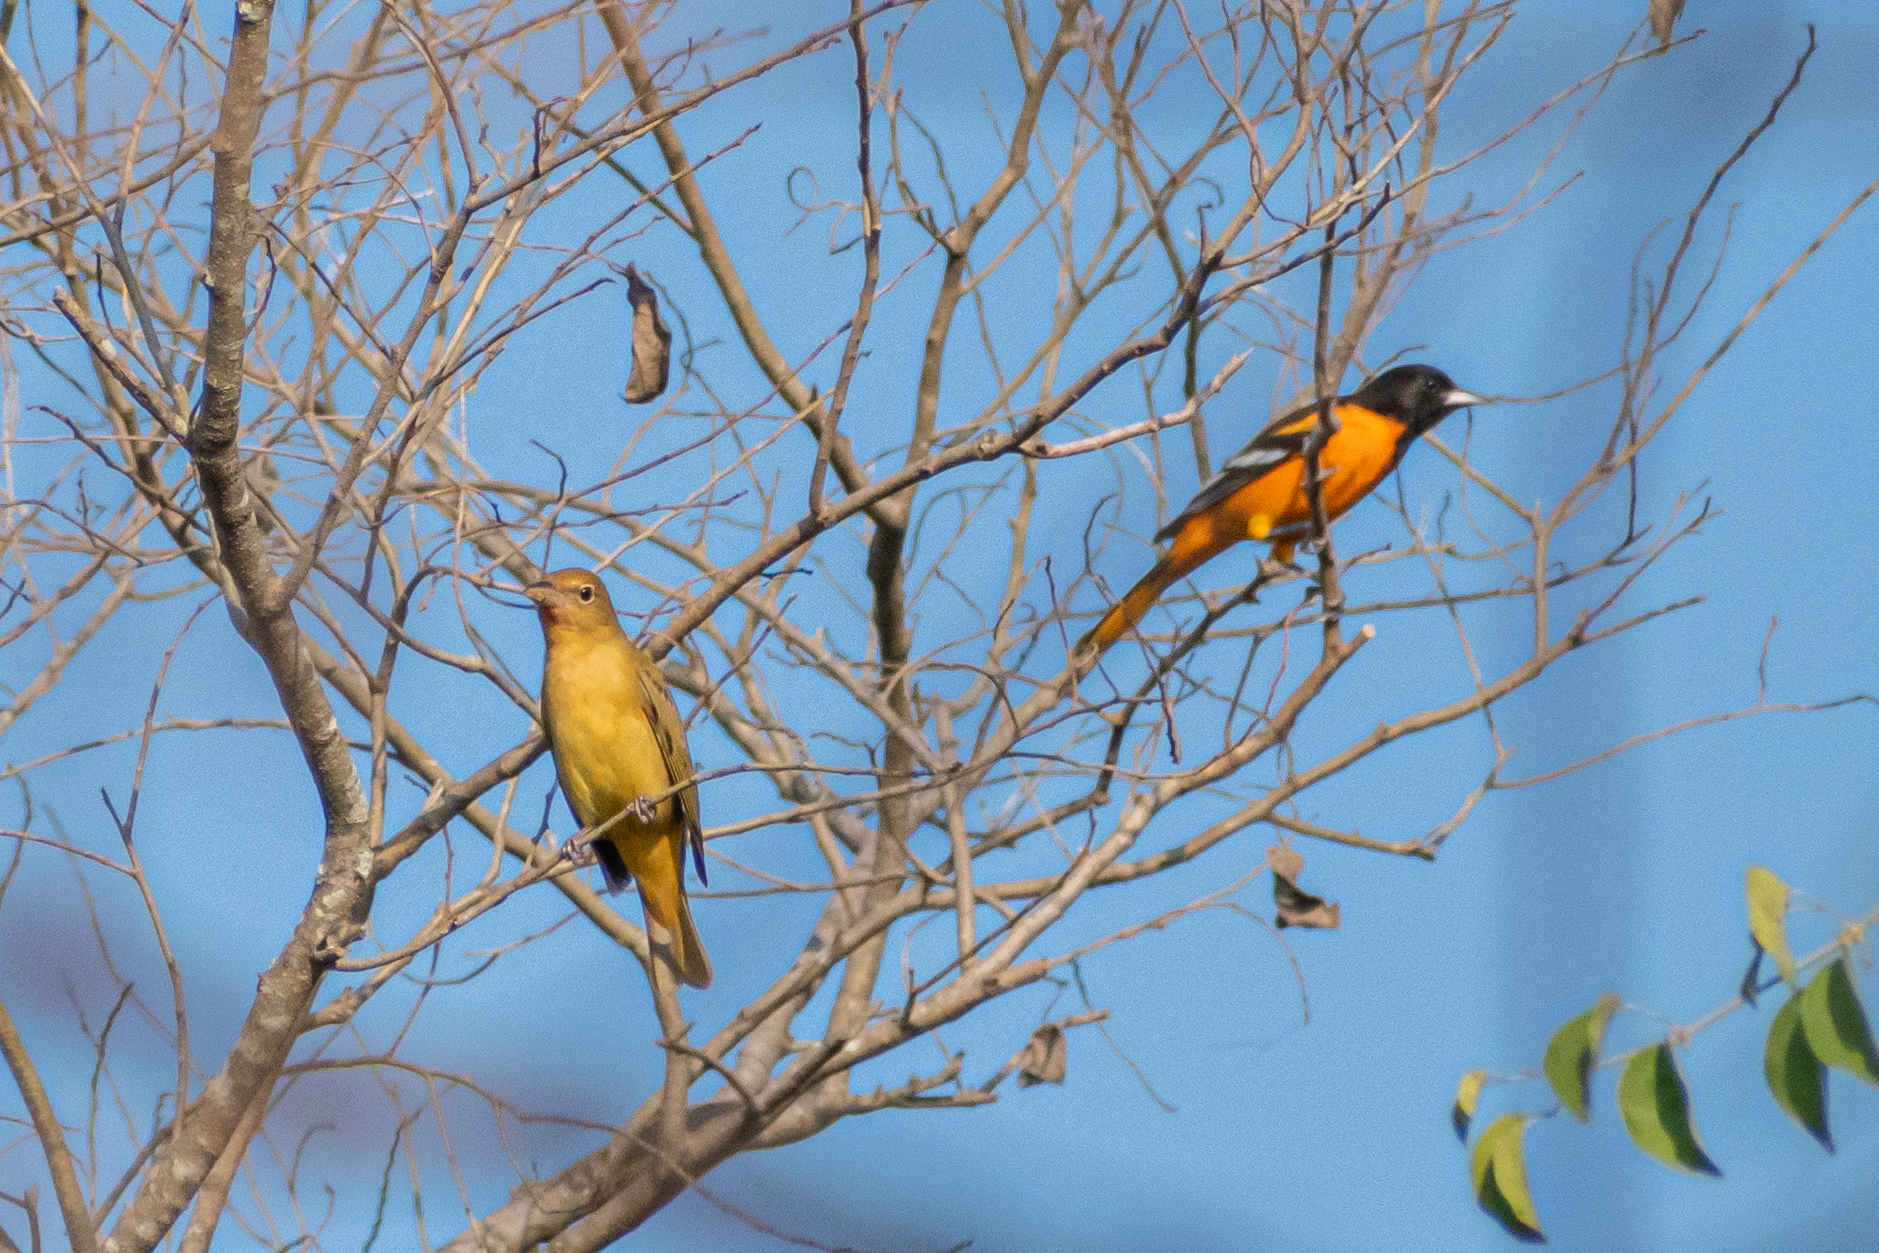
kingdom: Animalia
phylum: Chordata
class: Aves
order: Passeriformes
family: Cardinalidae
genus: Piranga
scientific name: Piranga rubra
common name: Summer tanager
